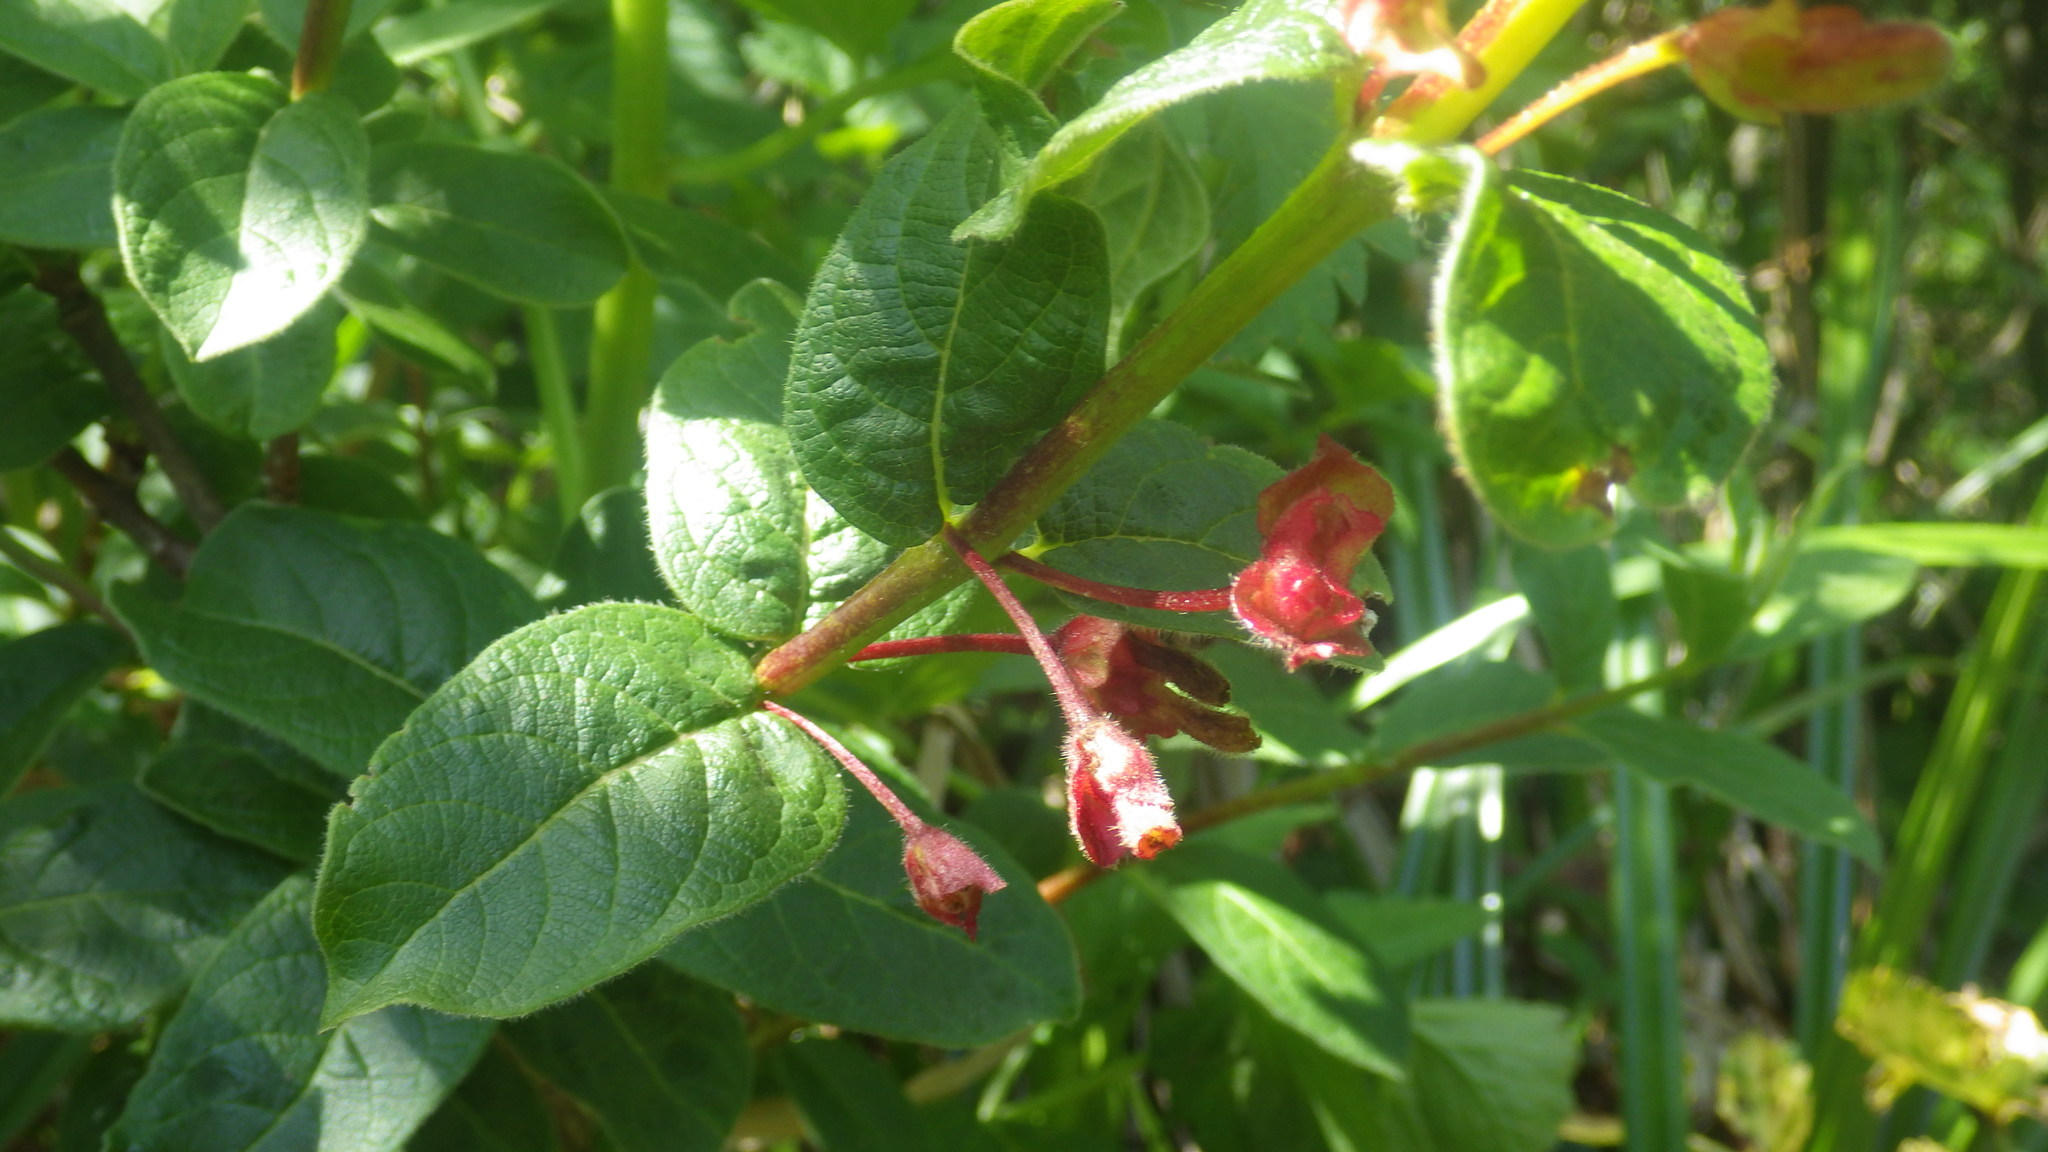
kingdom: Plantae
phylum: Tracheophyta
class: Magnoliopsida
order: Dipsacales
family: Caprifoliaceae
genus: Lonicera
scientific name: Lonicera involucrata
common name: Californian honeysuckle
